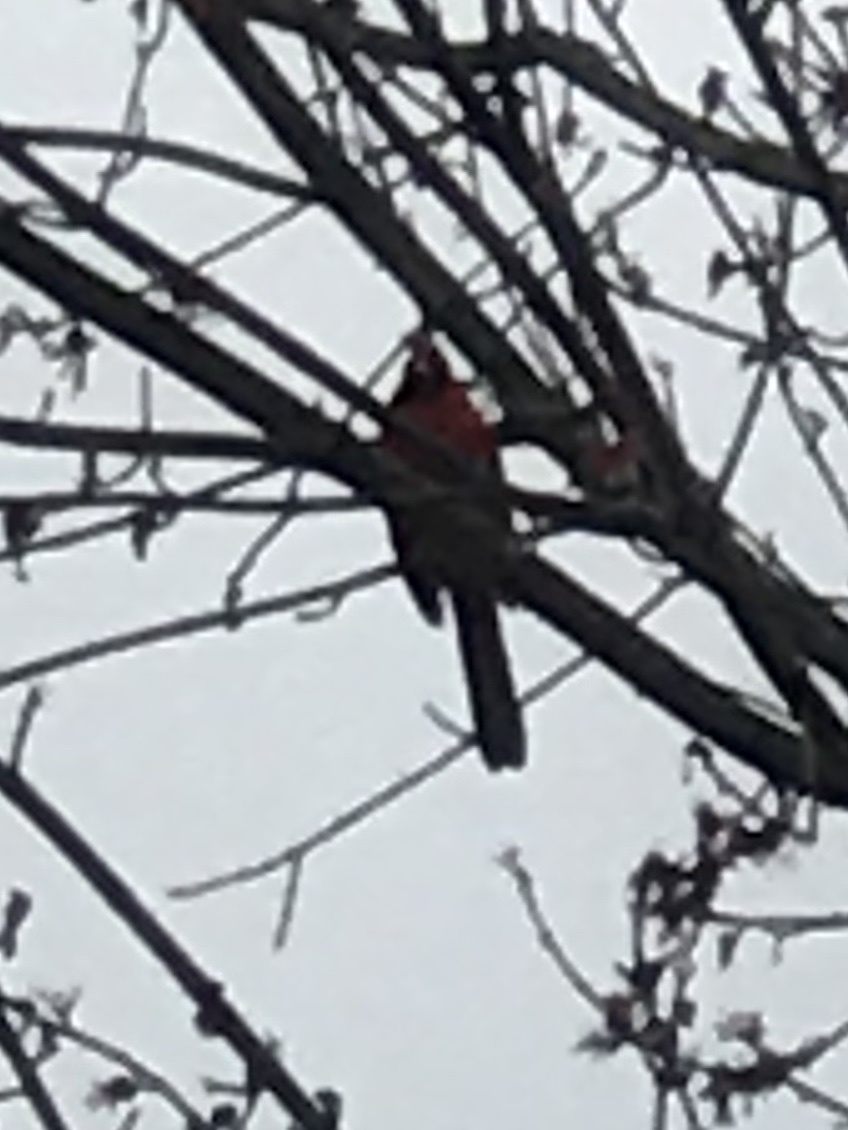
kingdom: Animalia
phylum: Chordata
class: Aves
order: Passeriformes
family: Cardinalidae
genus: Cardinalis
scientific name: Cardinalis cardinalis
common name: Northern cardinal
